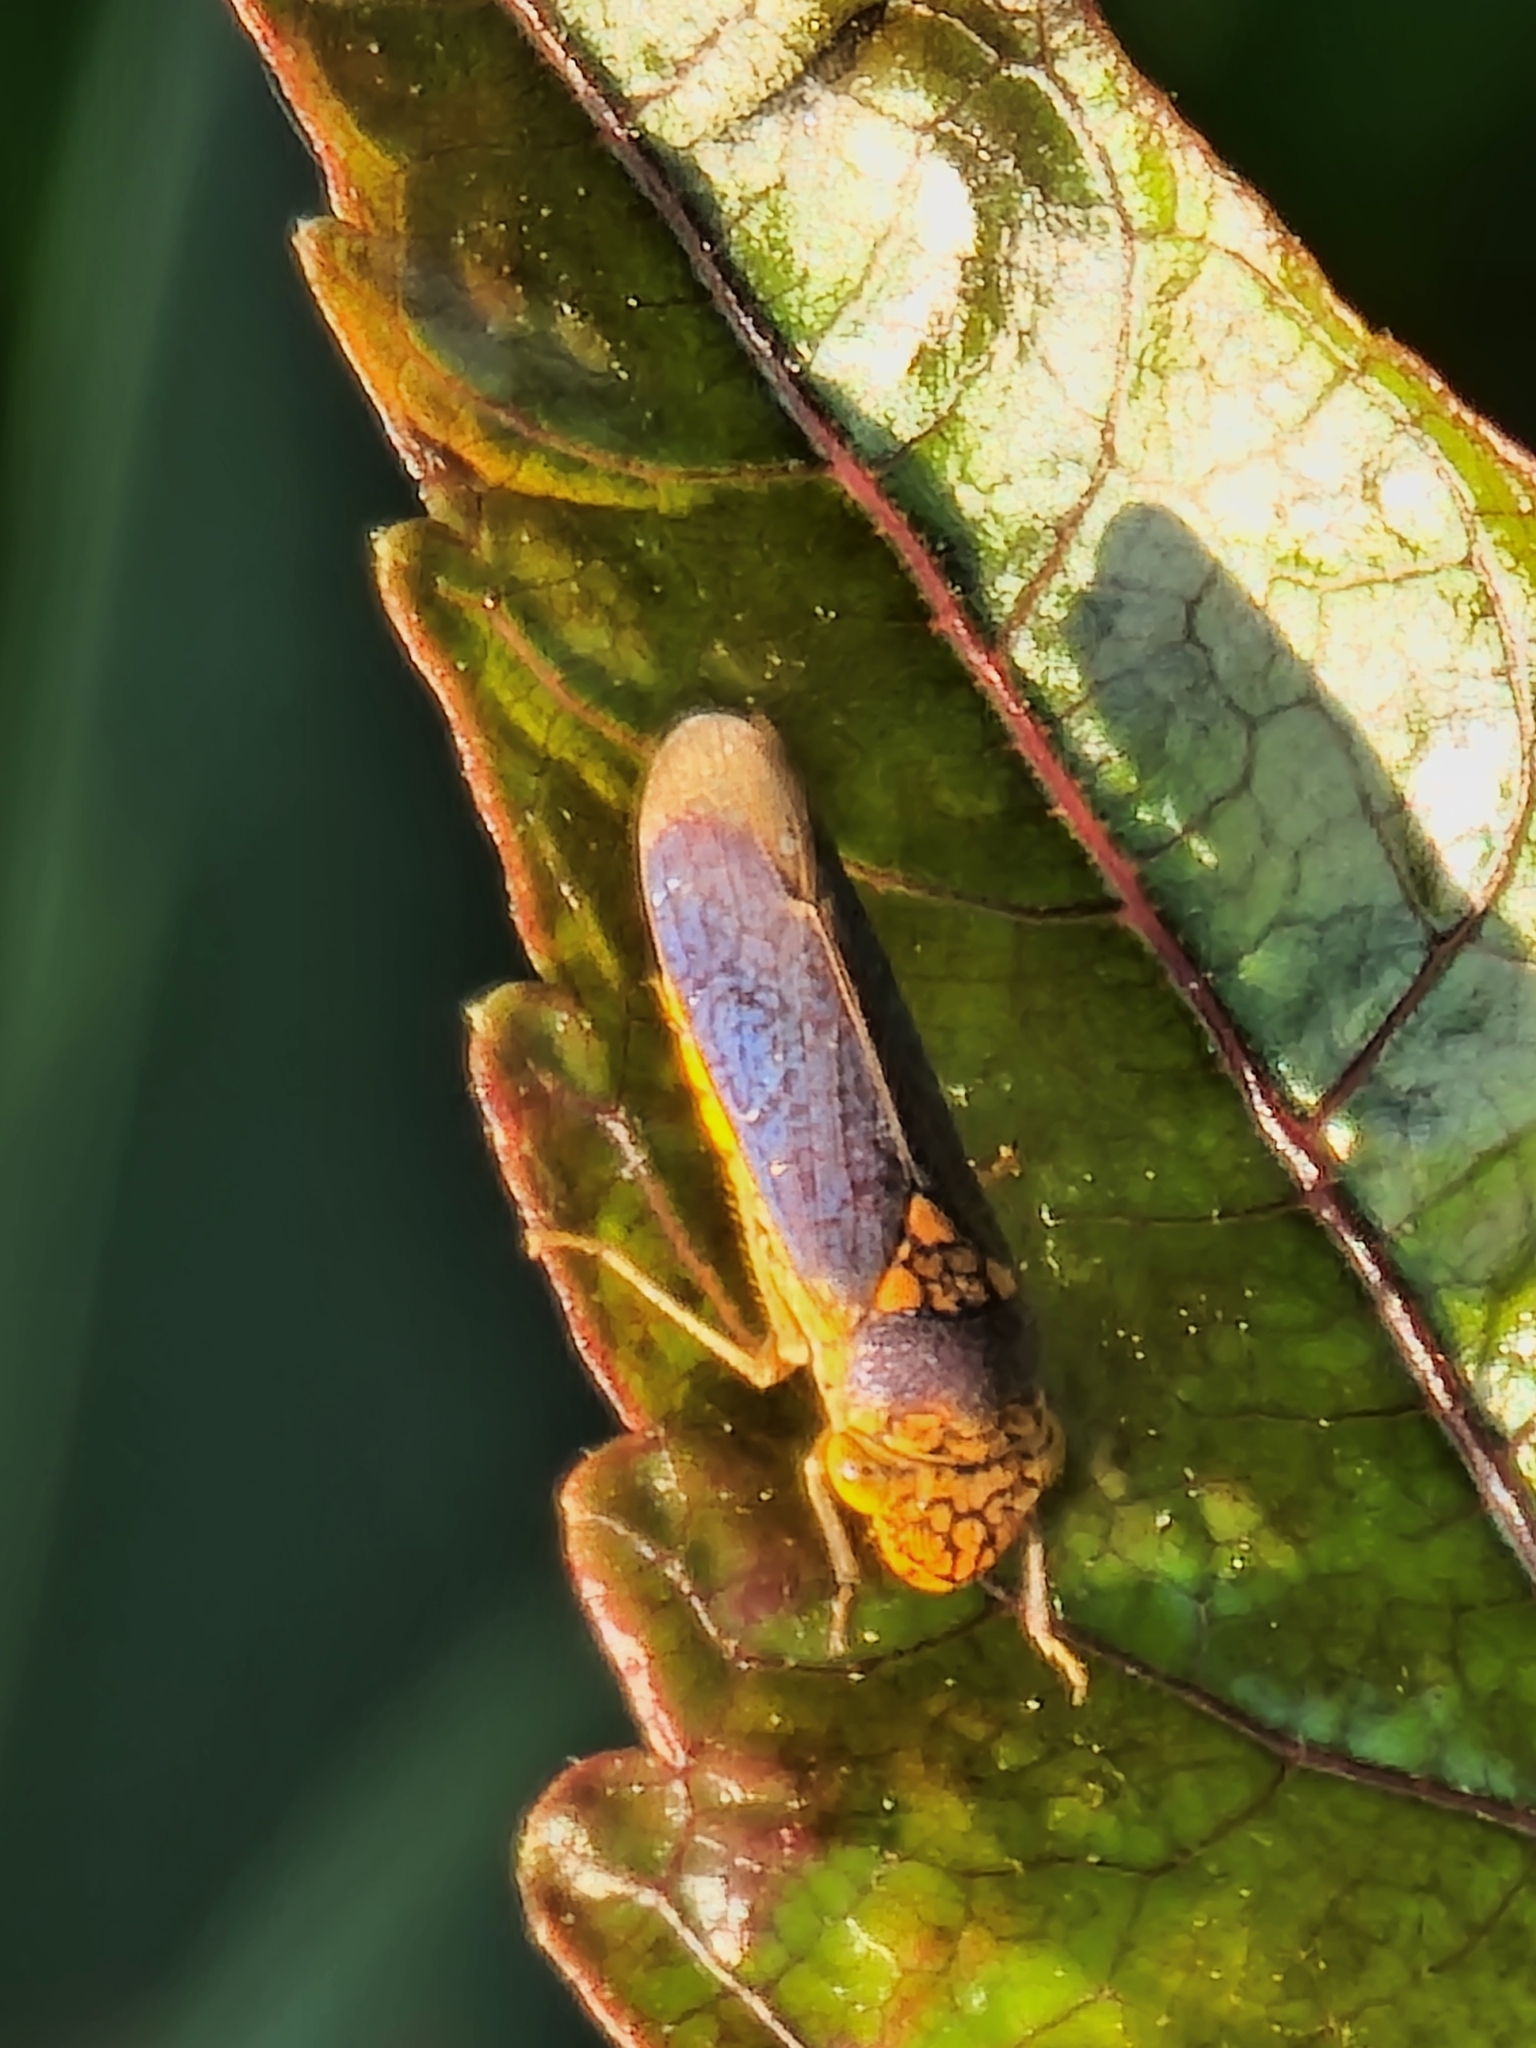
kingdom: Animalia
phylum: Arthropoda
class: Insecta
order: Hemiptera
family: Cicadellidae
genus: Oncometopia
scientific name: Oncometopia orbona
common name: Broad-headed sharpshooter
